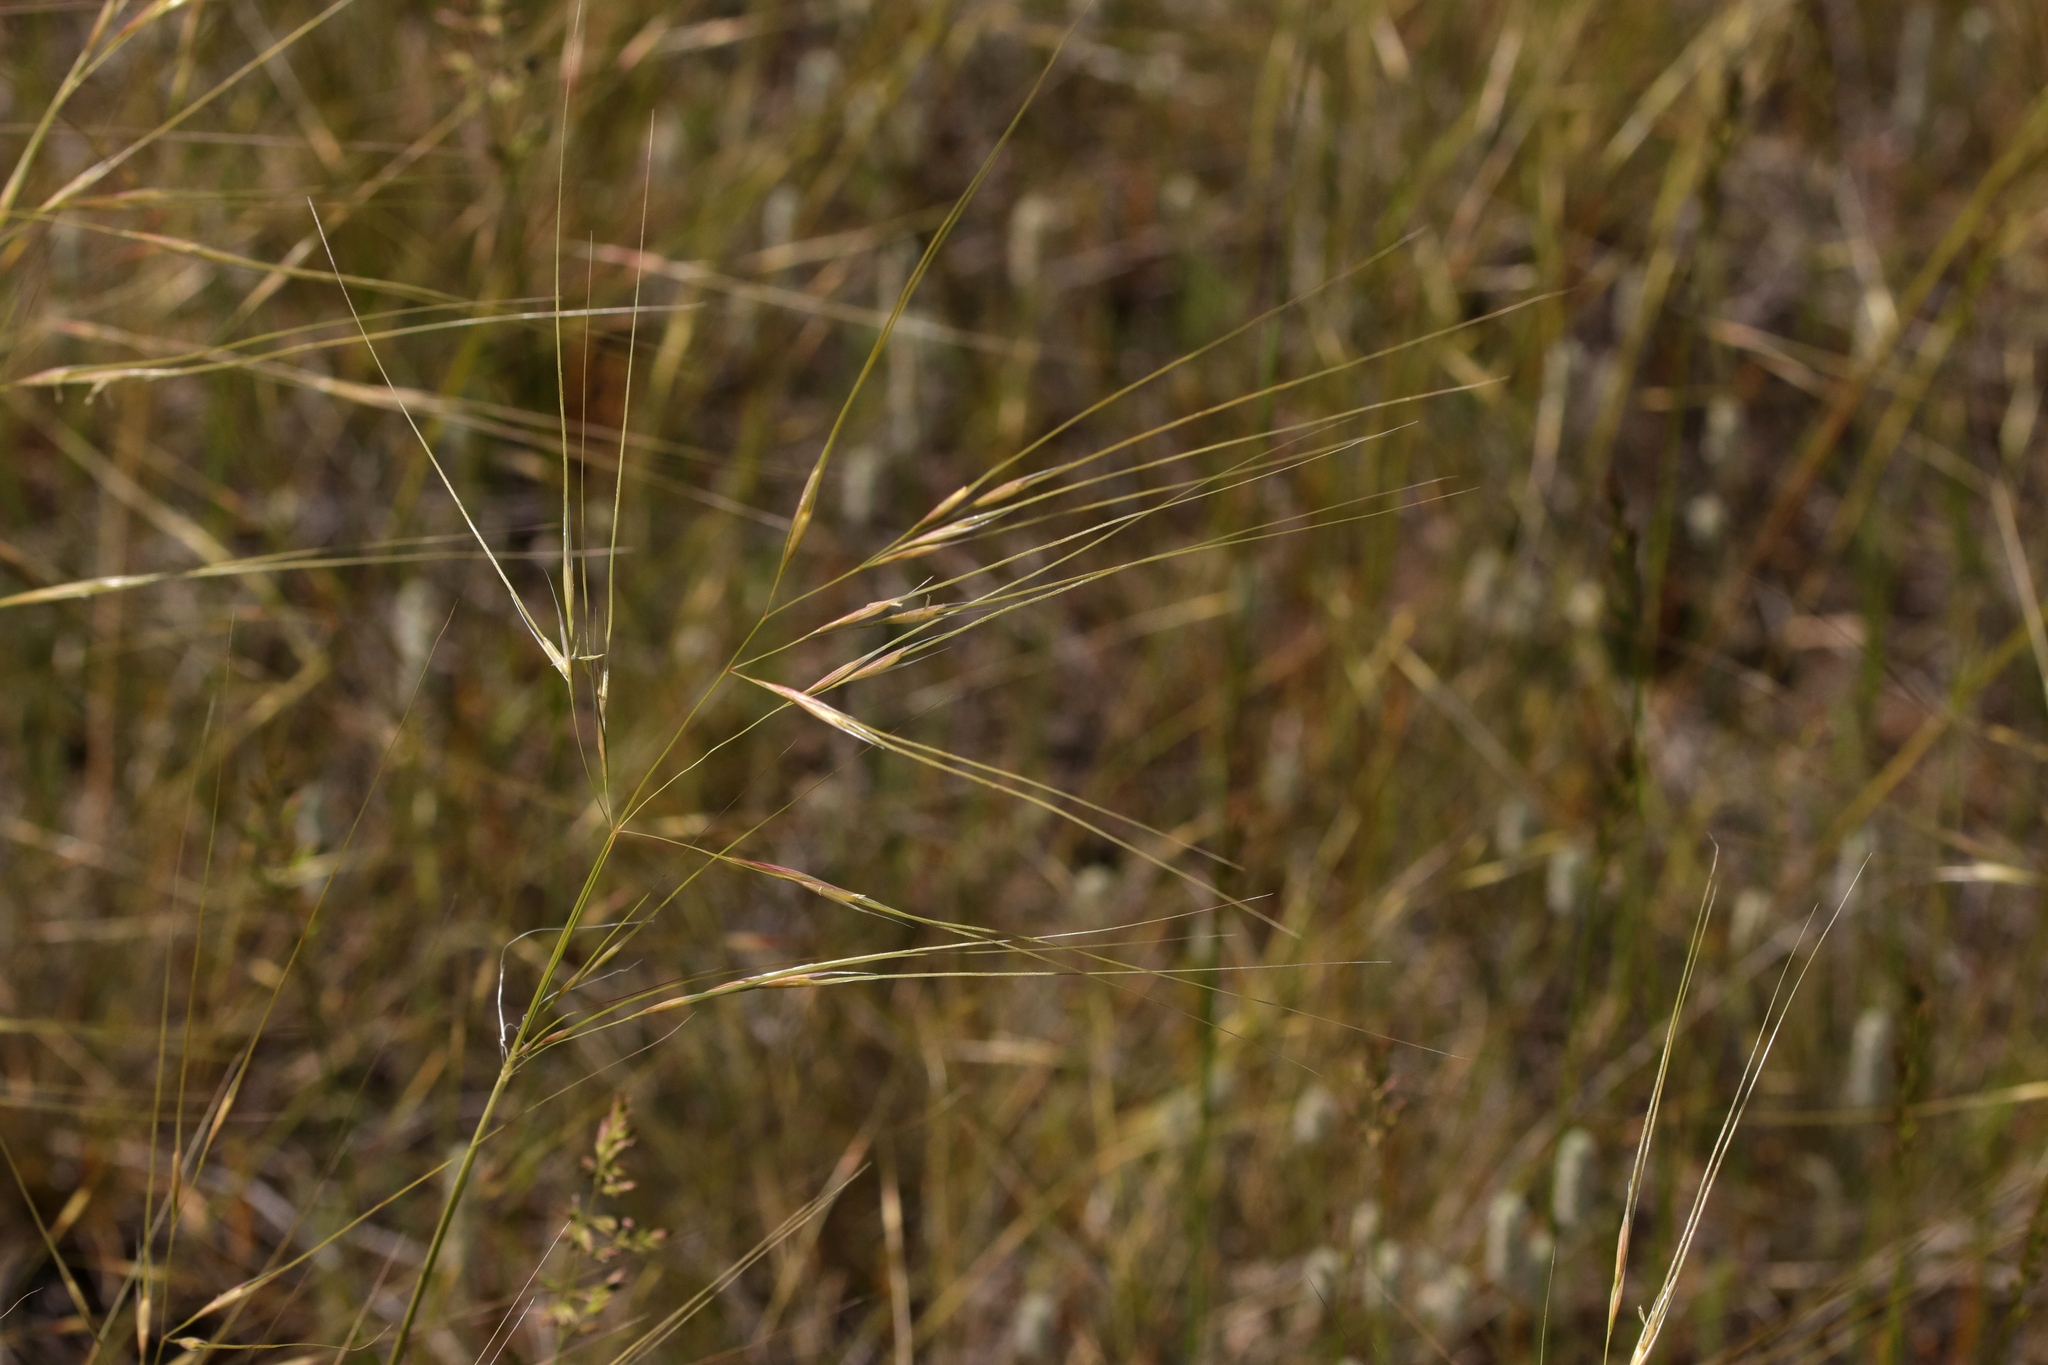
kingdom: Plantae
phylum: Tracheophyta
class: Liliopsida
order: Poales
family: Poaceae
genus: Hesperostipa
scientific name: Hesperostipa comata
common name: Needle-and-thread grass
